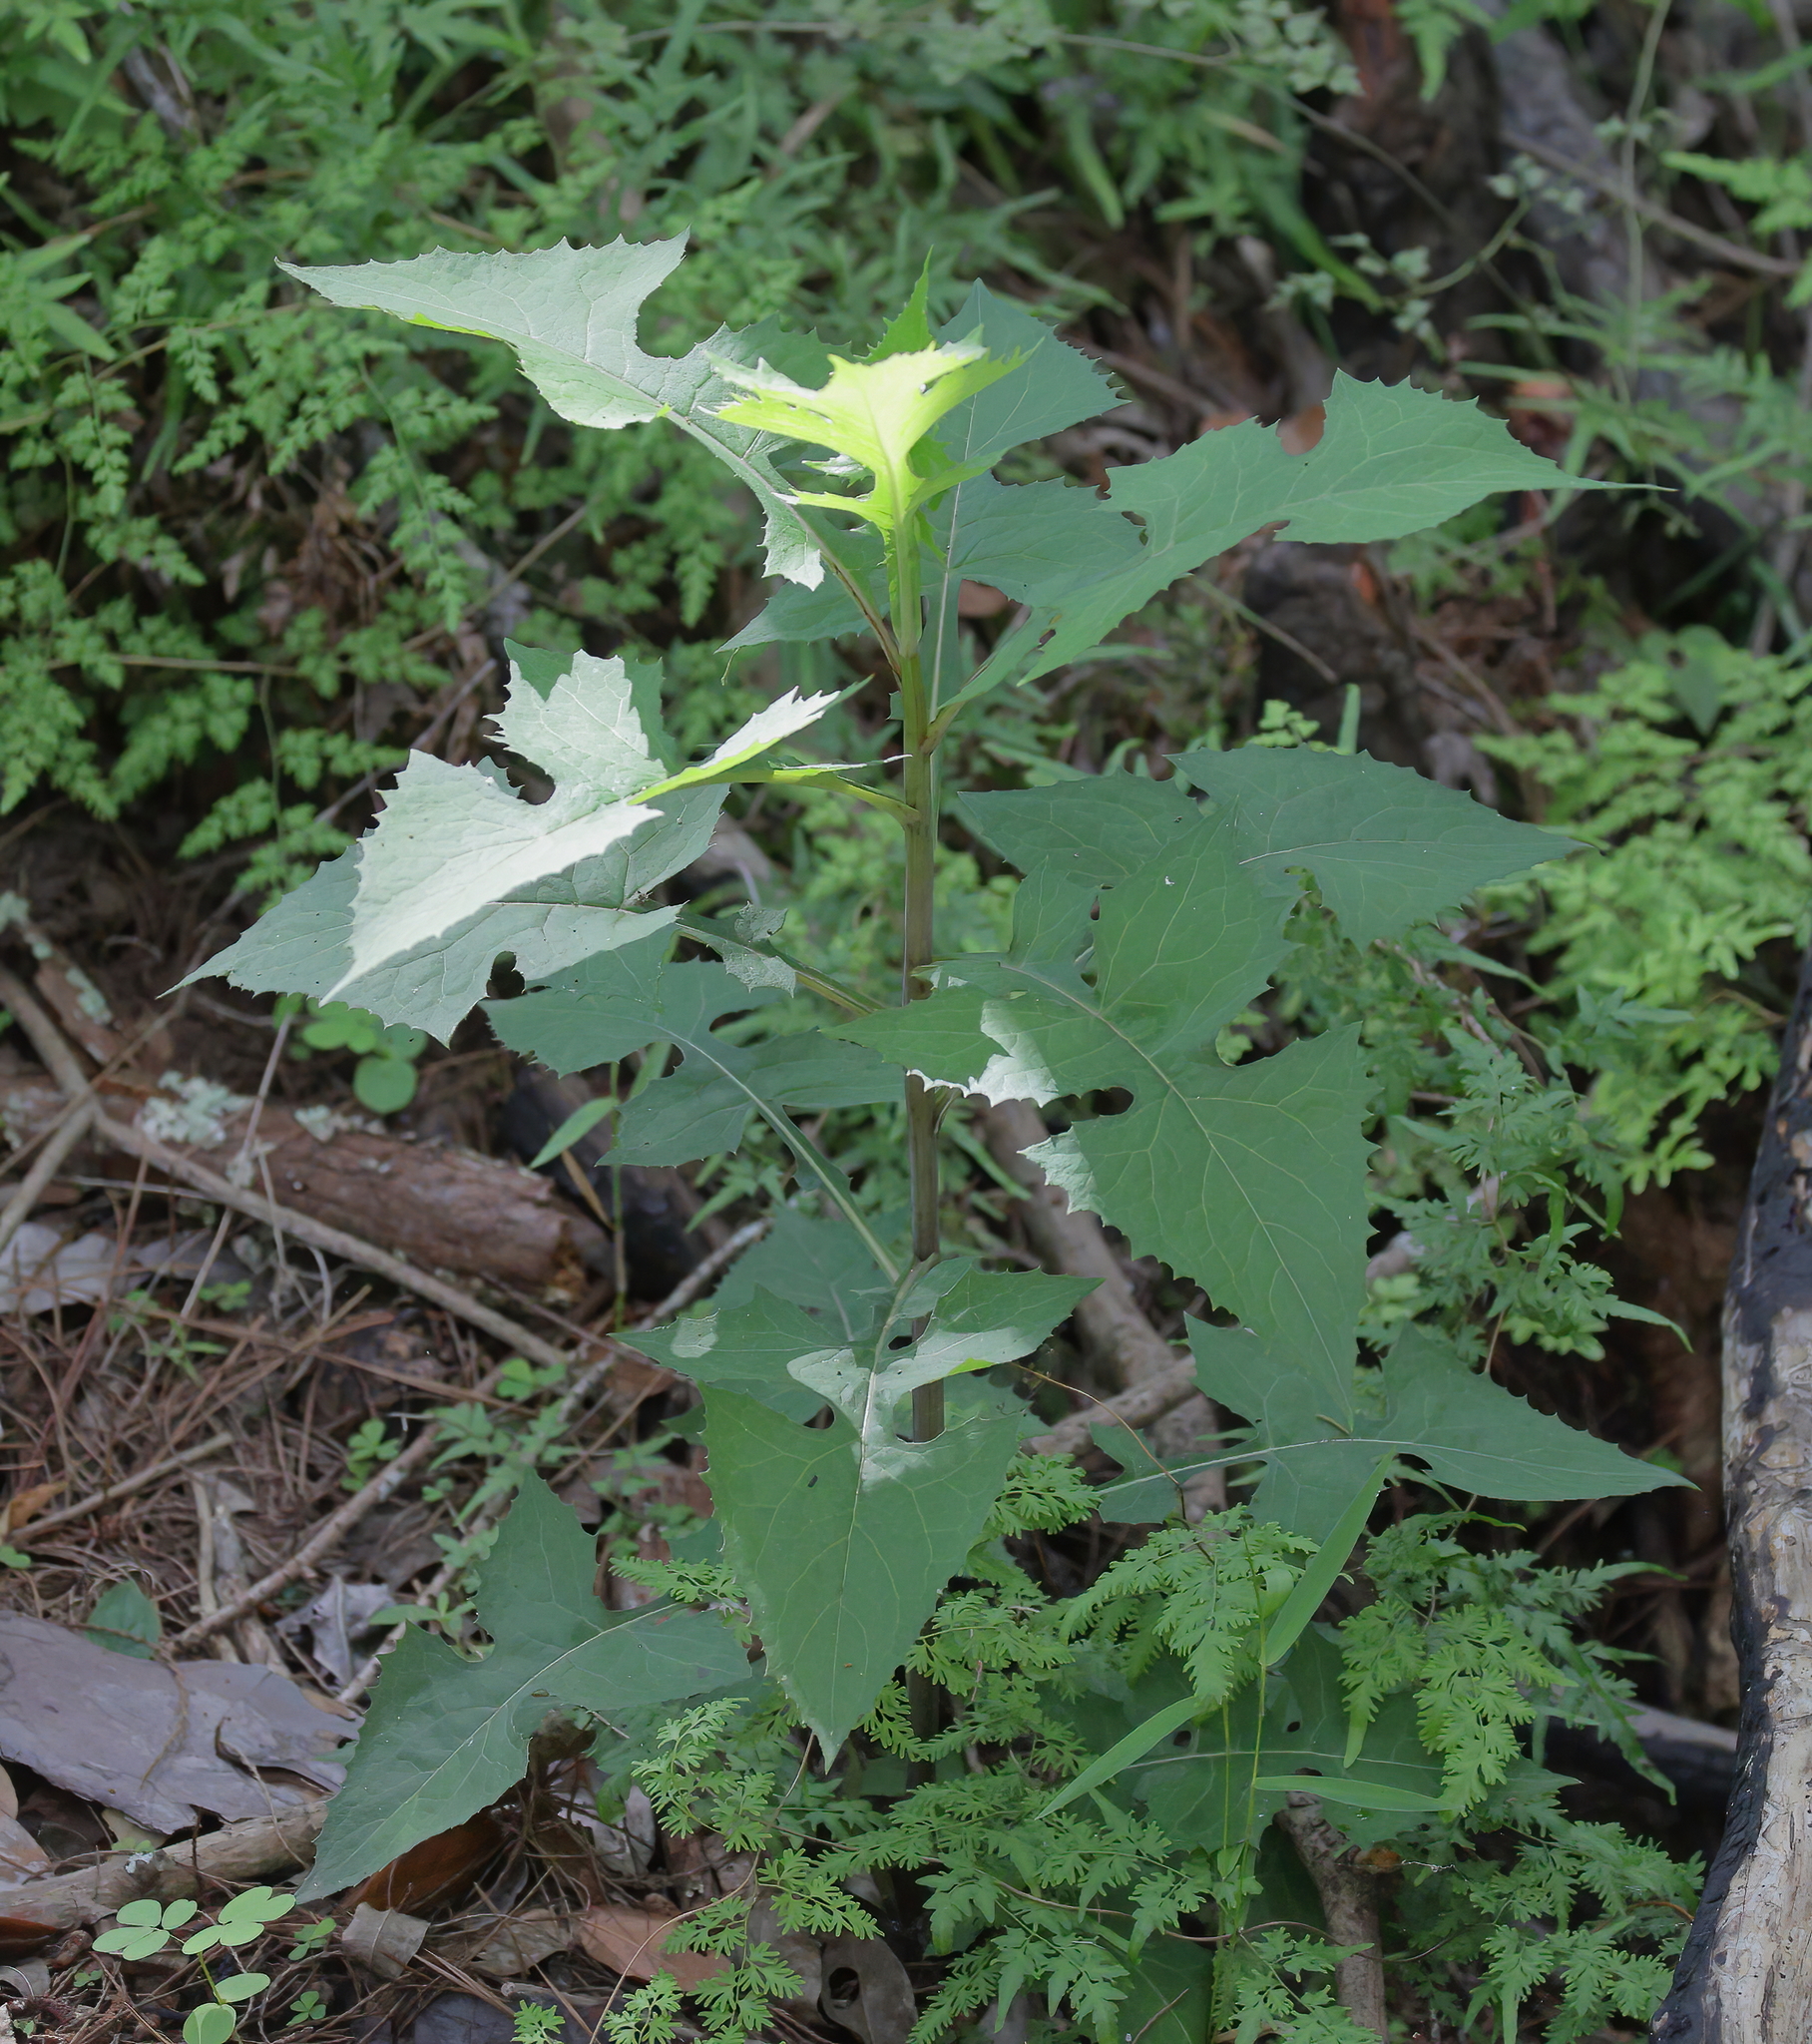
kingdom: Plantae
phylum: Tracheophyta
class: Magnoliopsida
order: Asterales
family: Asteraceae
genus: Lactuca
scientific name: Lactuca floridana
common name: Woodland lettuce
